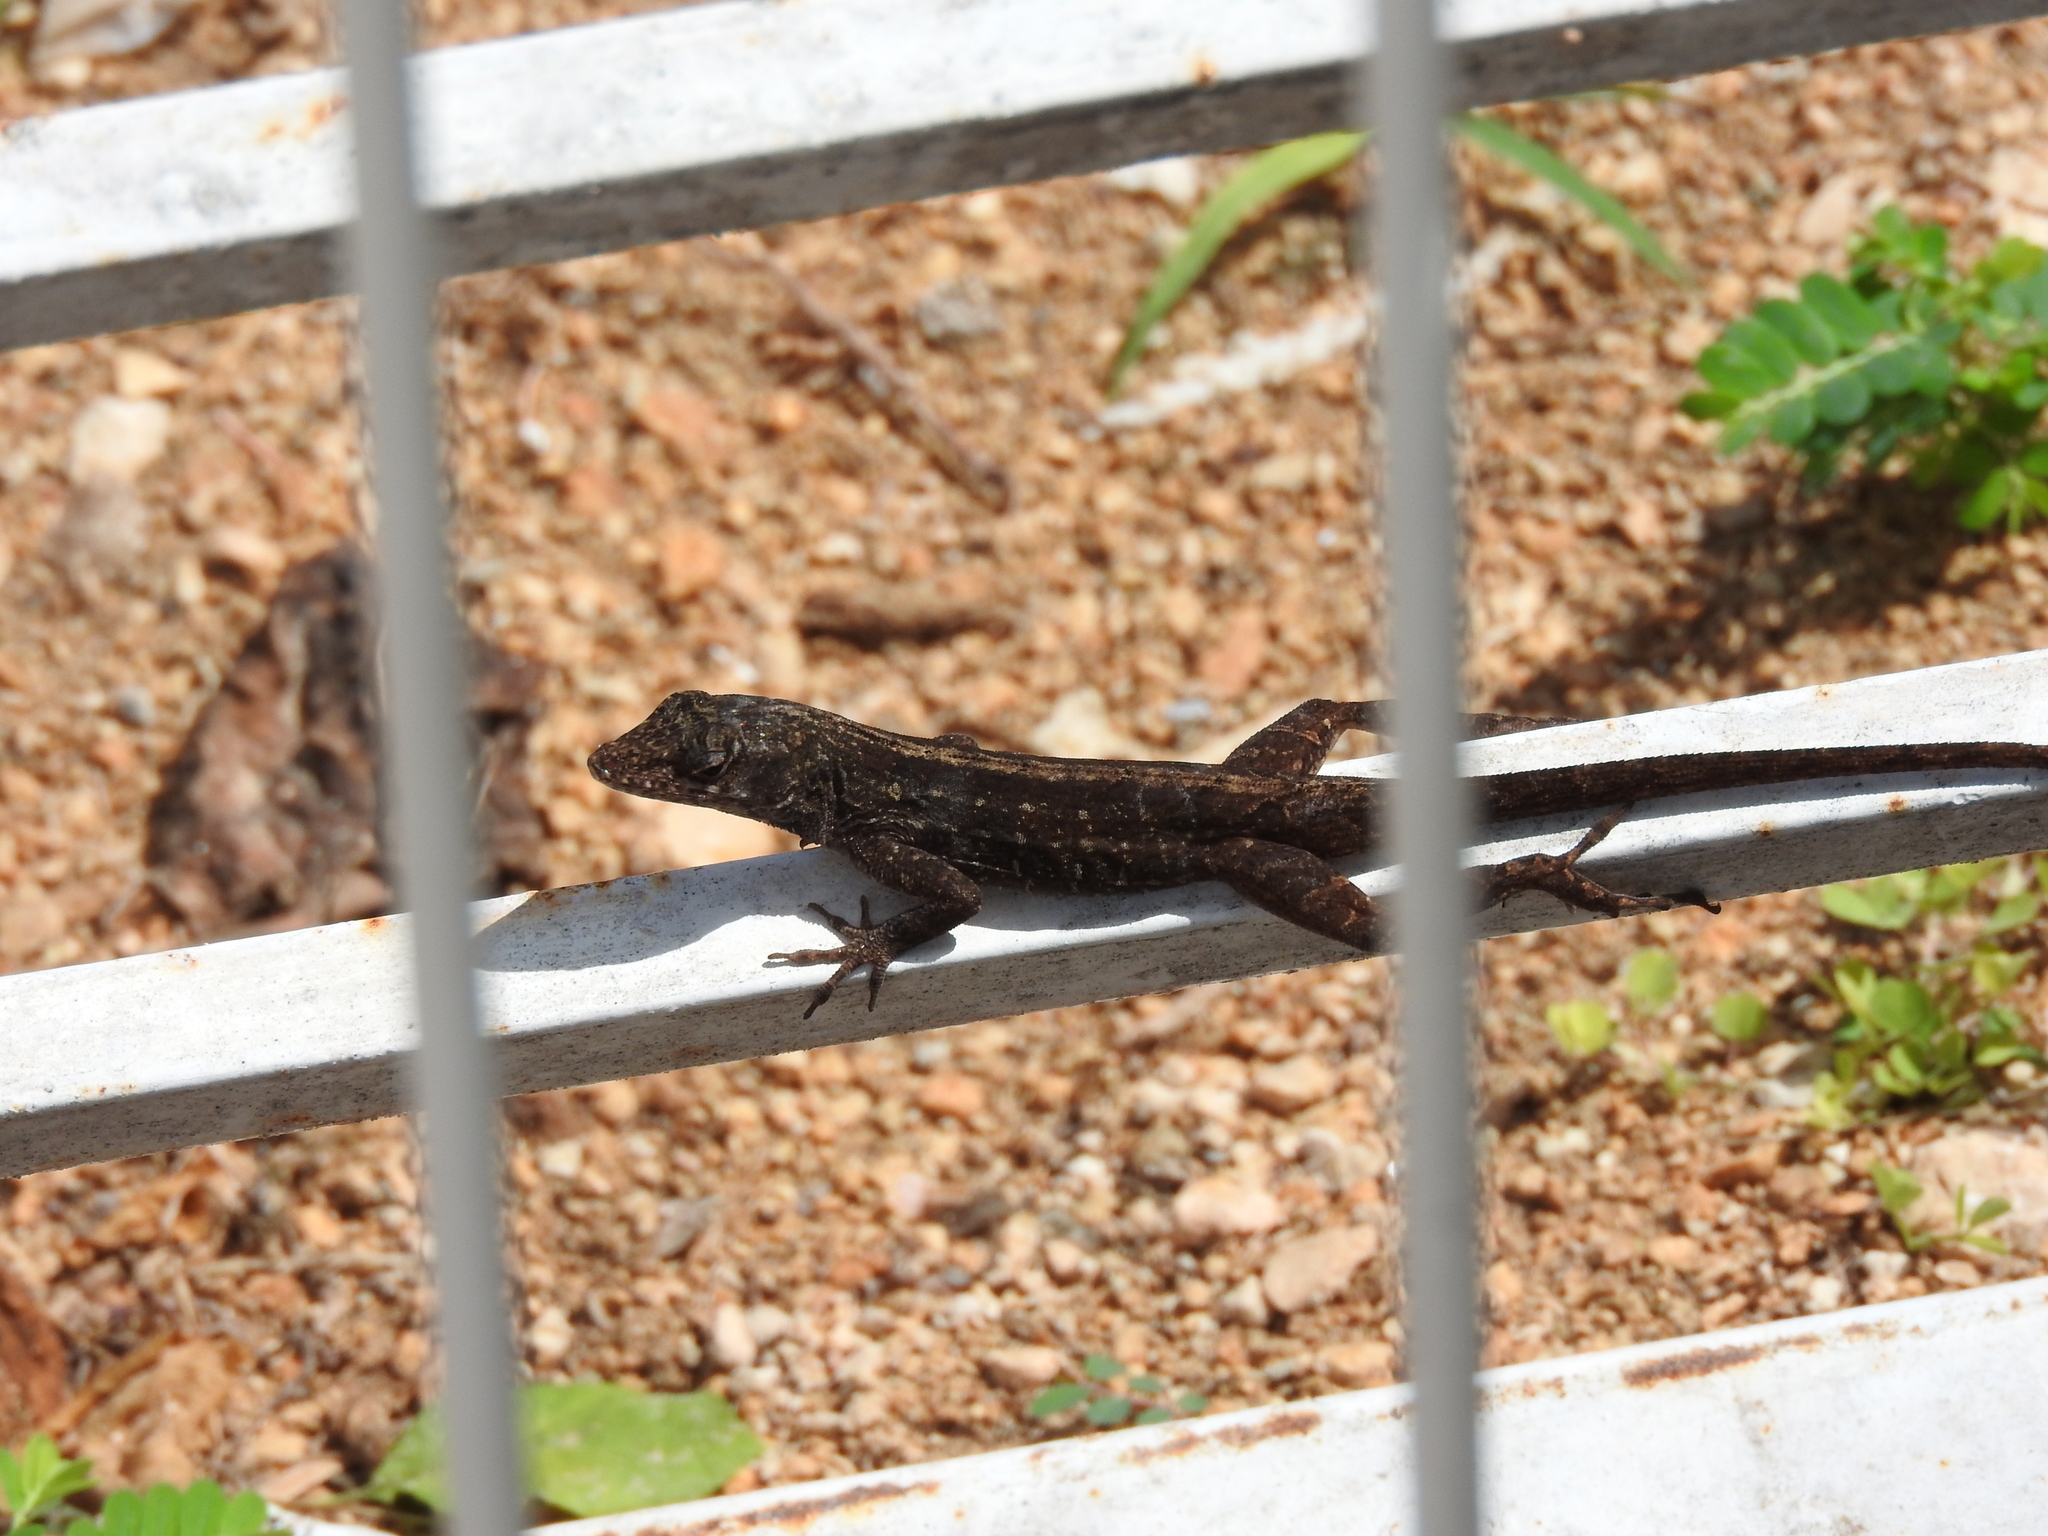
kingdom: Animalia
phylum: Chordata
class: Squamata
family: Dactyloidae
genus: Anolis
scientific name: Anolis sagrei
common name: Brown anole
